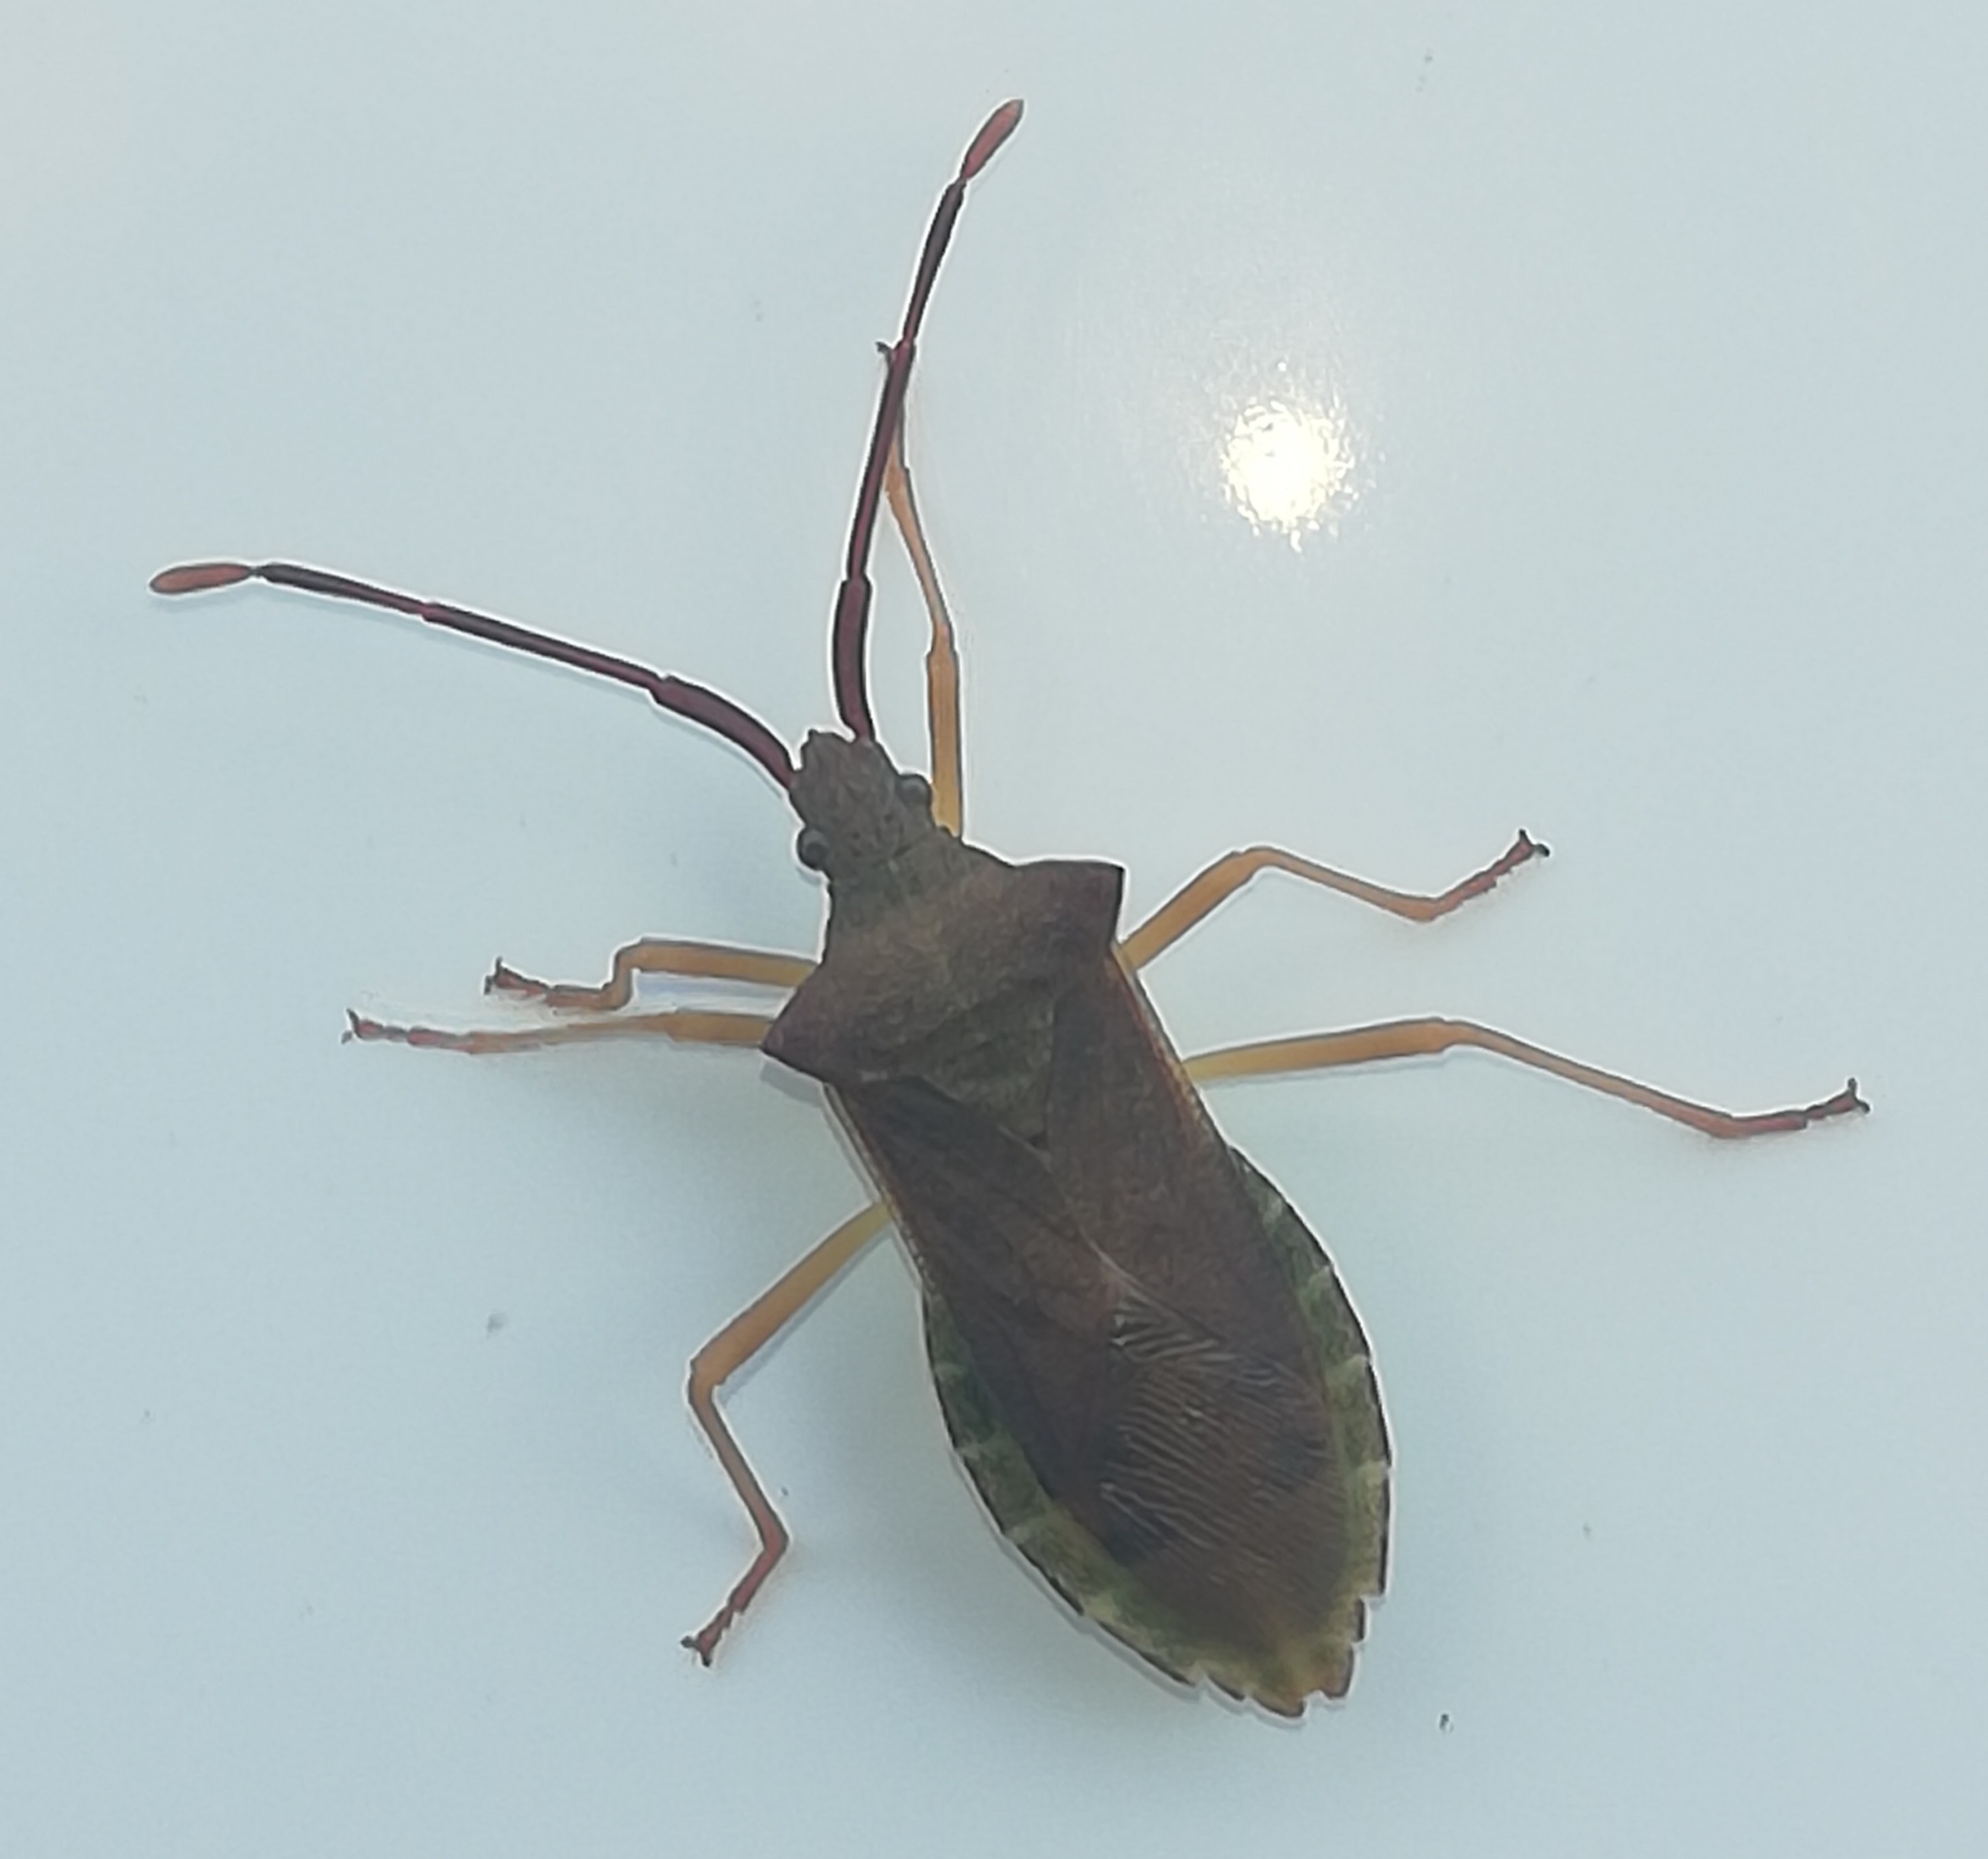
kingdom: Animalia
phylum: Arthropoda
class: Insecta
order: Hemiptera
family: Coreidae
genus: Gonocerus
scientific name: Gonocerus acuteangulatus
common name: Box bug
